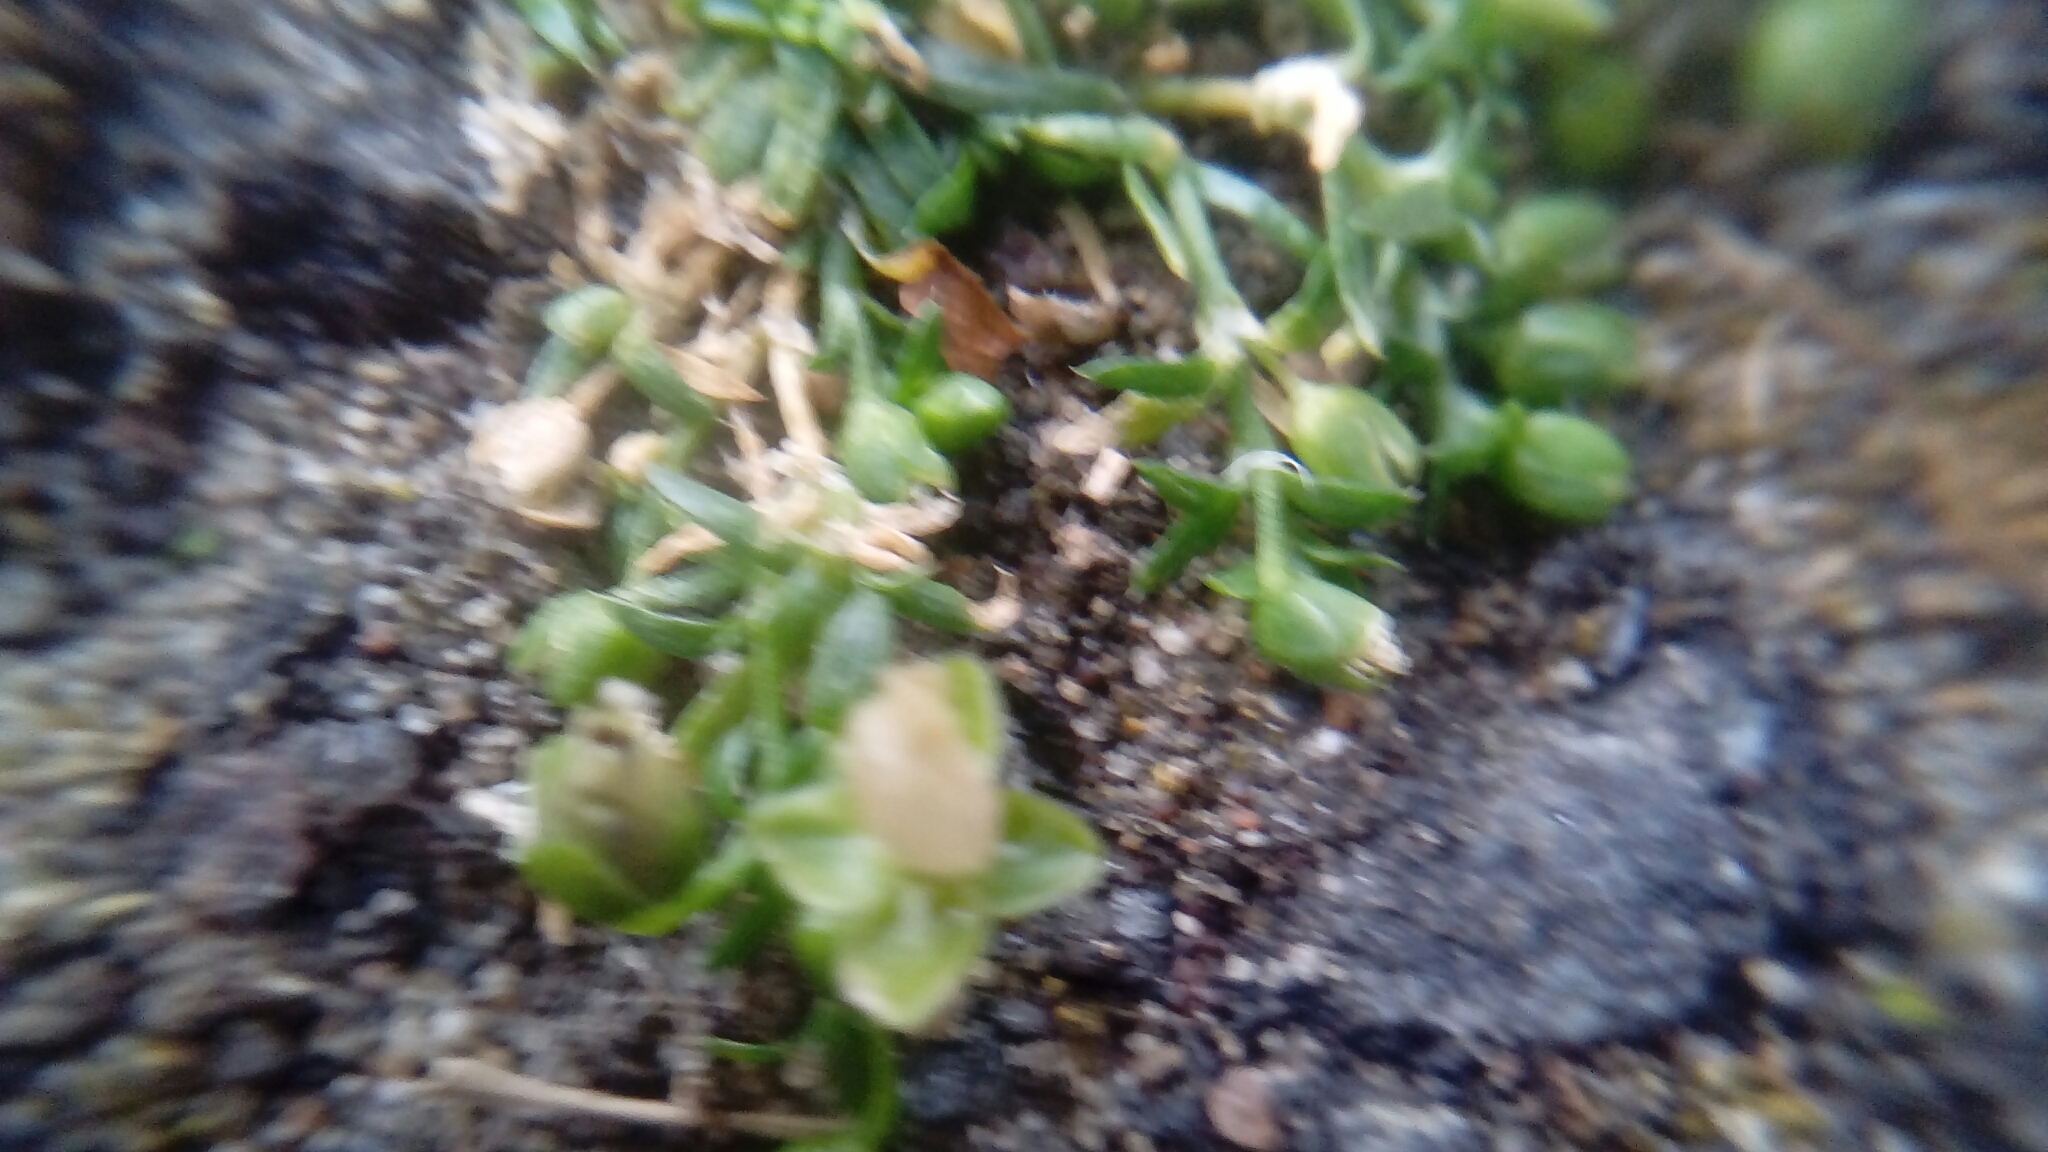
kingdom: Plantae
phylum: Tracheophyta
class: Magnoliopsida
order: Caryophyllales
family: Caryophyllaceae
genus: Sagina
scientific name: Sagina procumbens
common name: Procumbent pearlwort
